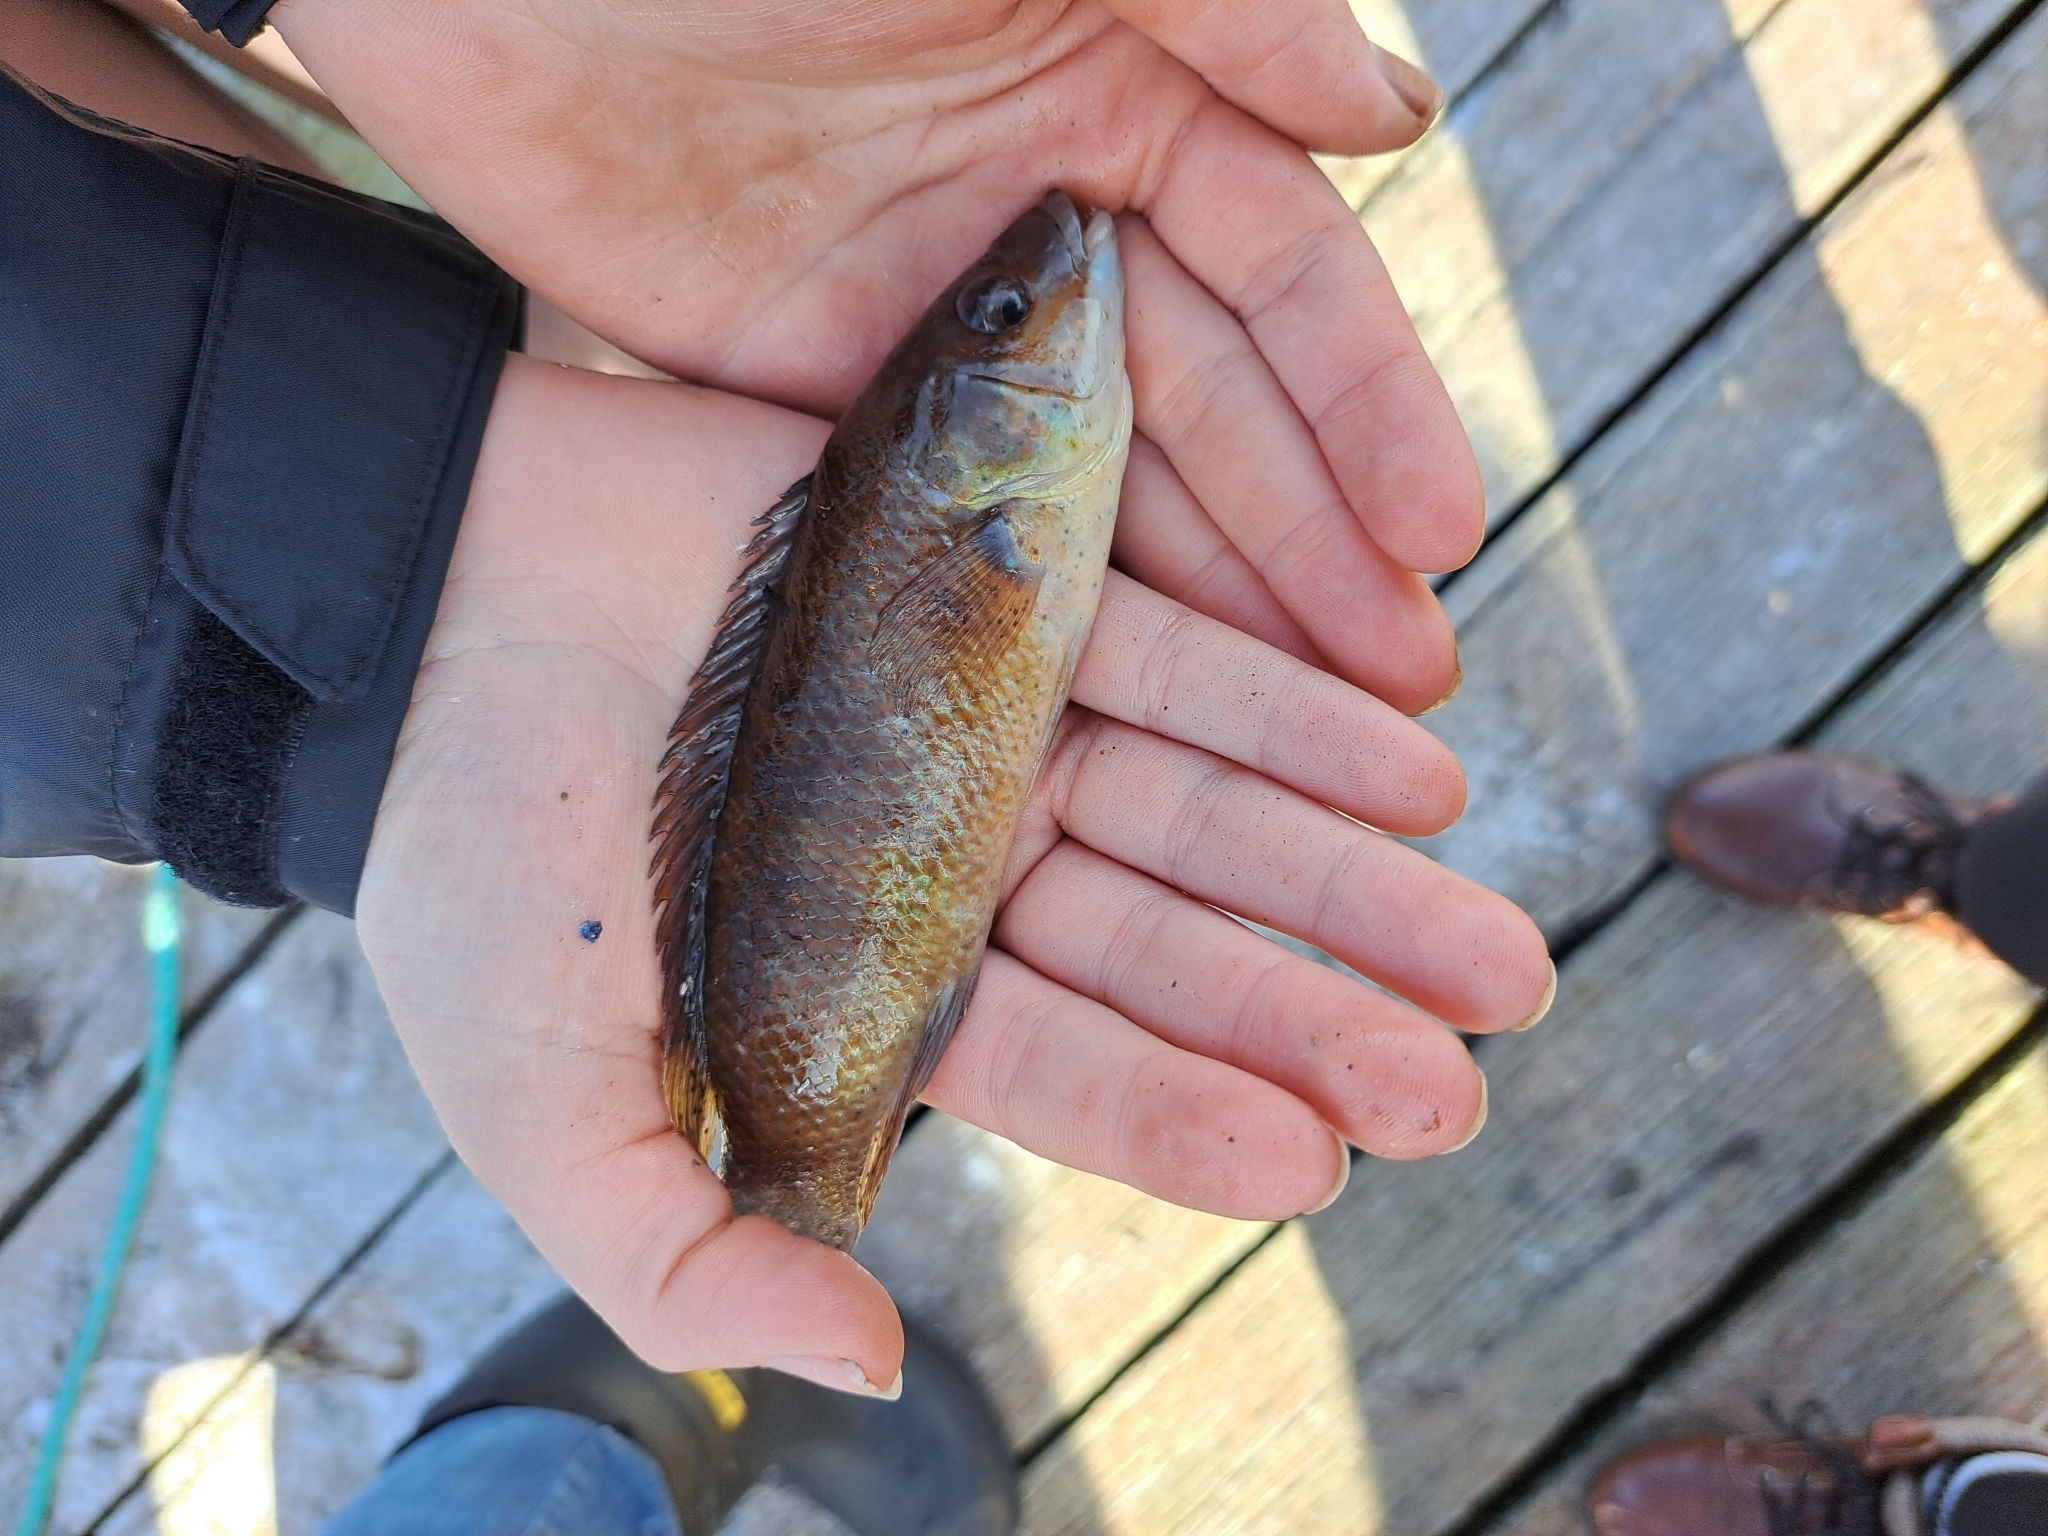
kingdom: Animalia
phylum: Chordata
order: Perciformes
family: Labridae
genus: Tautogolabrus
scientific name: Tautogolabrus adspersus
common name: Cunner
